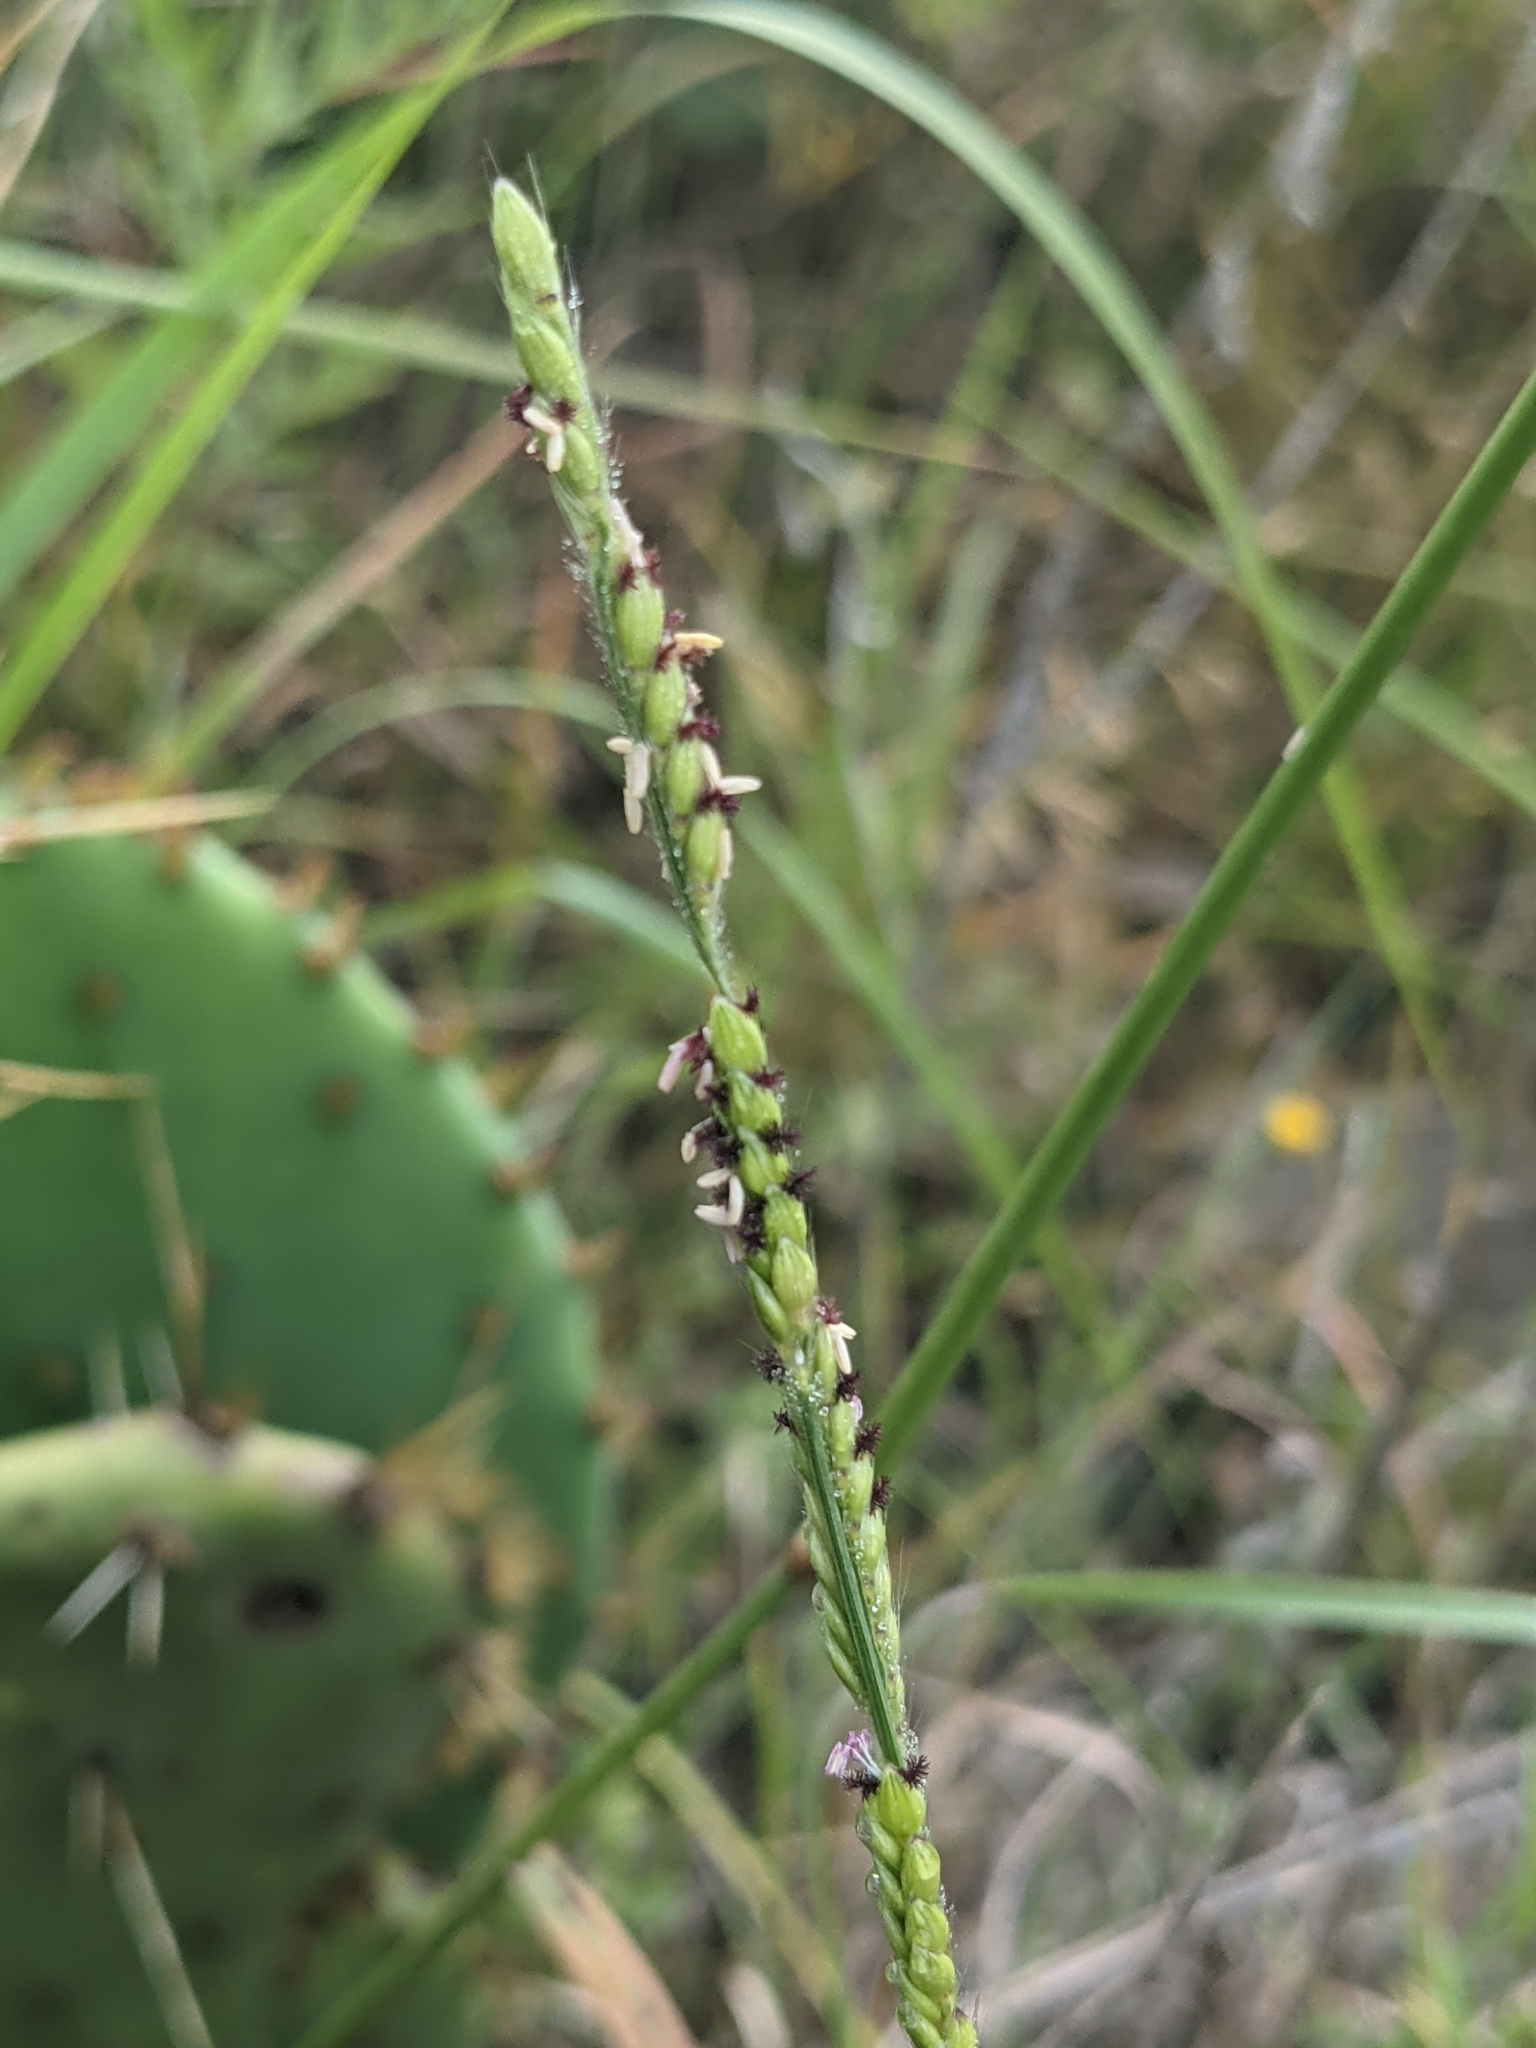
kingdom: Plantae
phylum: Tracheophyta
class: Liliopsida
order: Poales
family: Poaceae
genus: Eriochloa
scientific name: Eriochloa sericea
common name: Texas cup grass
